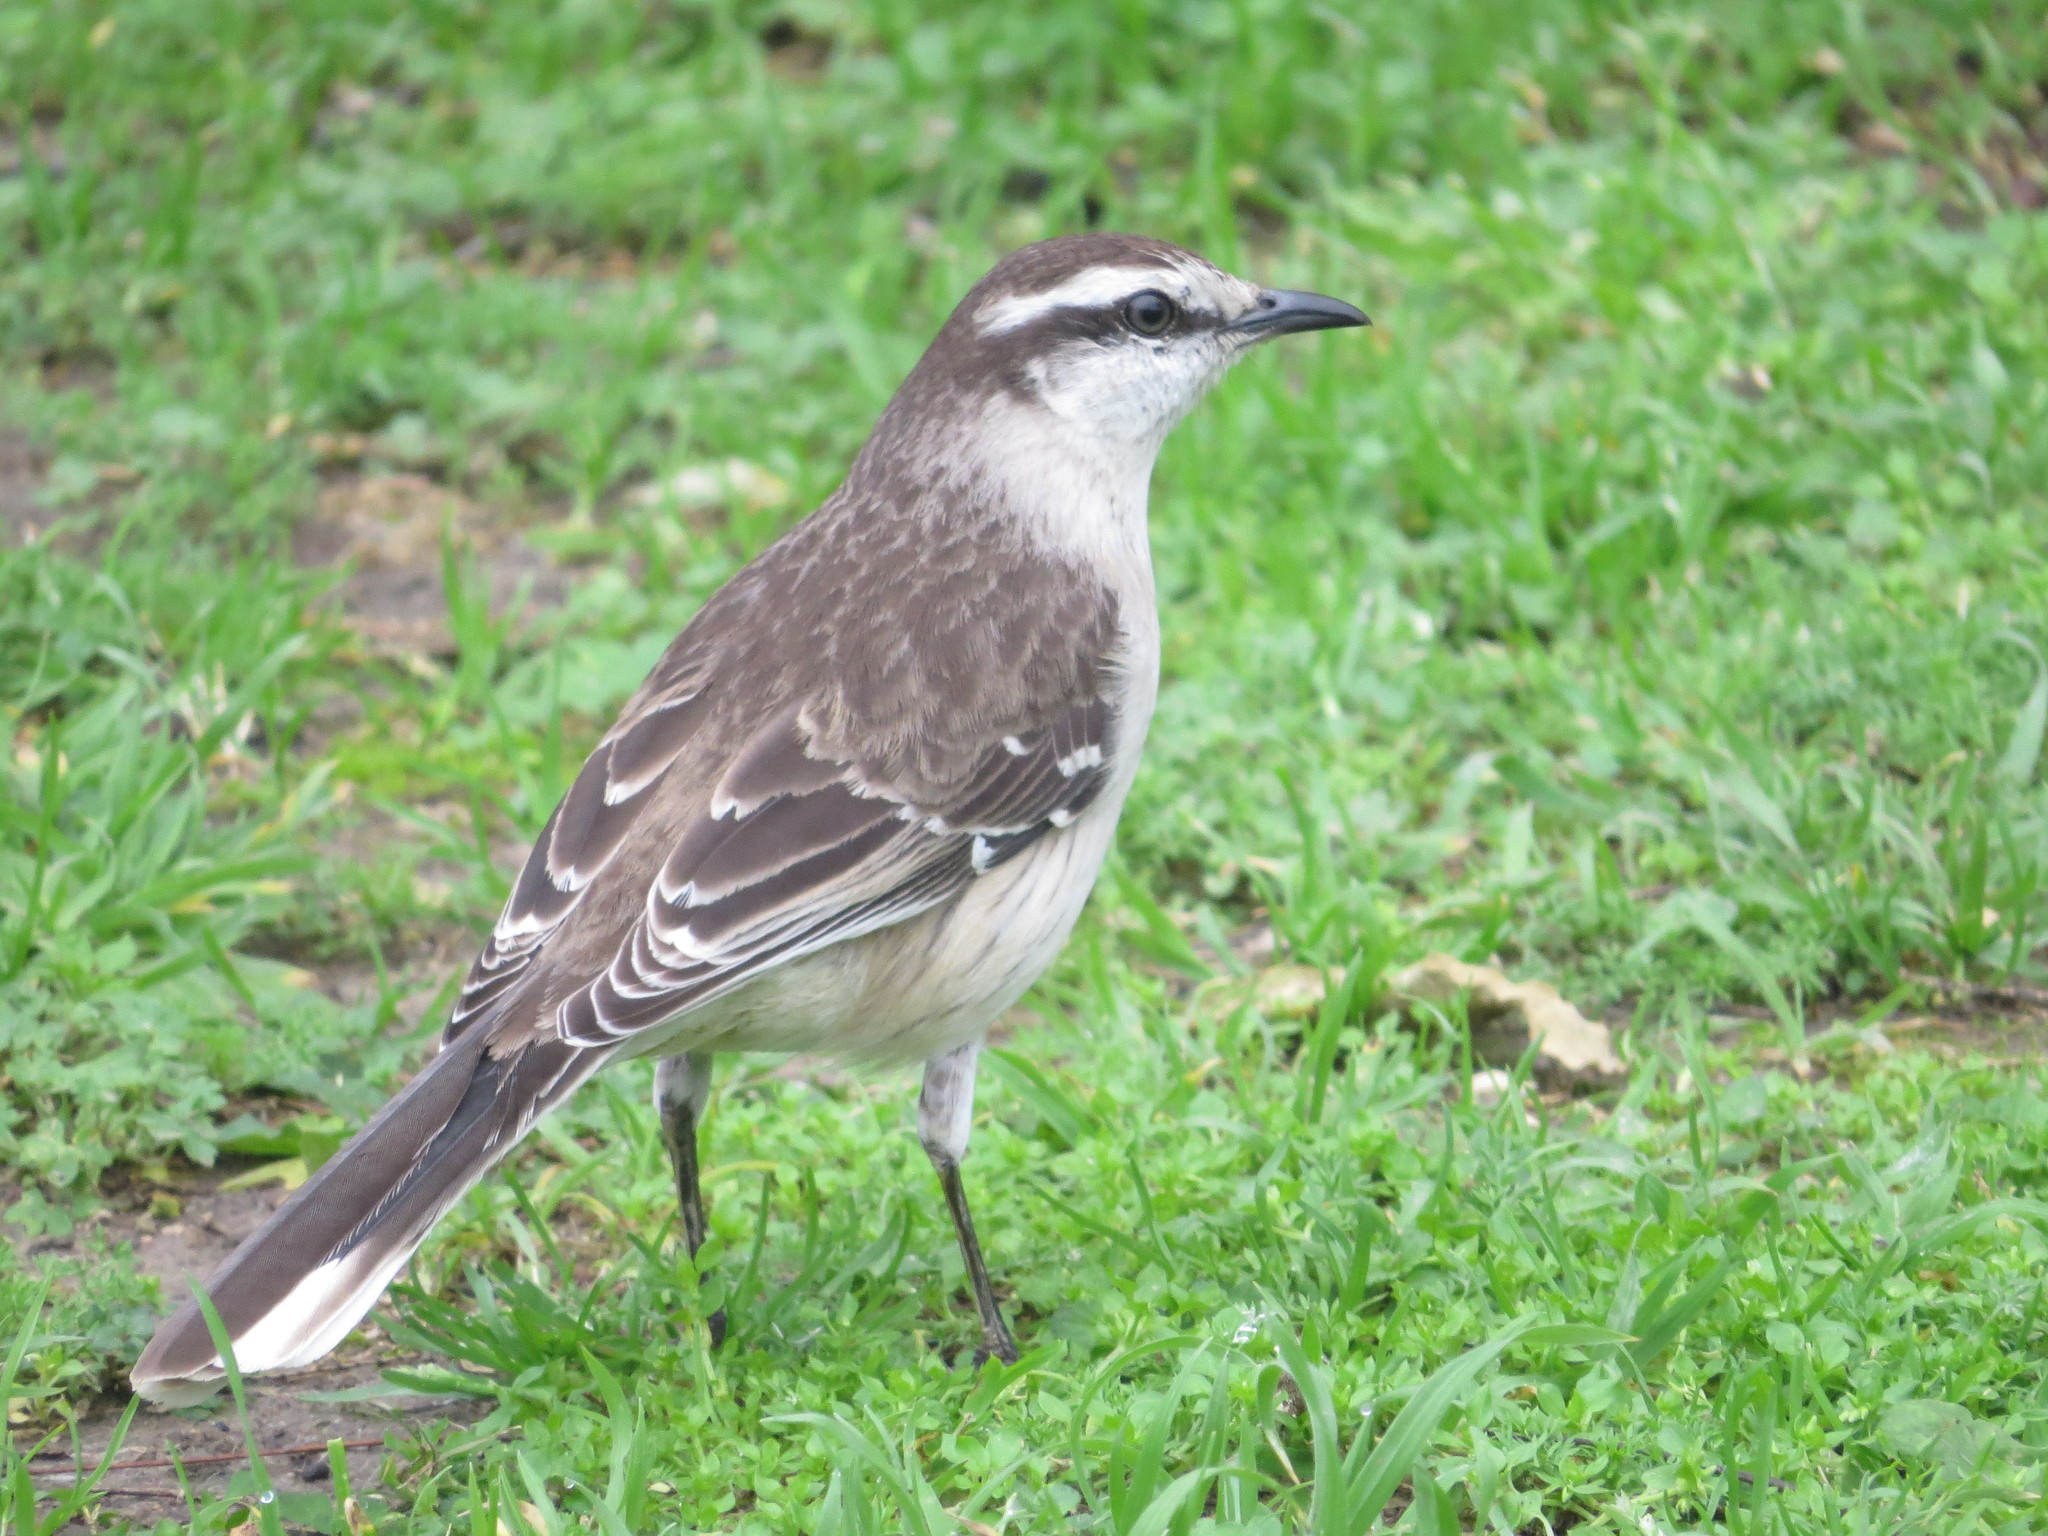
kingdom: Animalia
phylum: Chordata
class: Aves
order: Passeriformes
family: Mimidae
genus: Mimus
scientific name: Mimus saturninus
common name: Chalk-browed mockingbird
